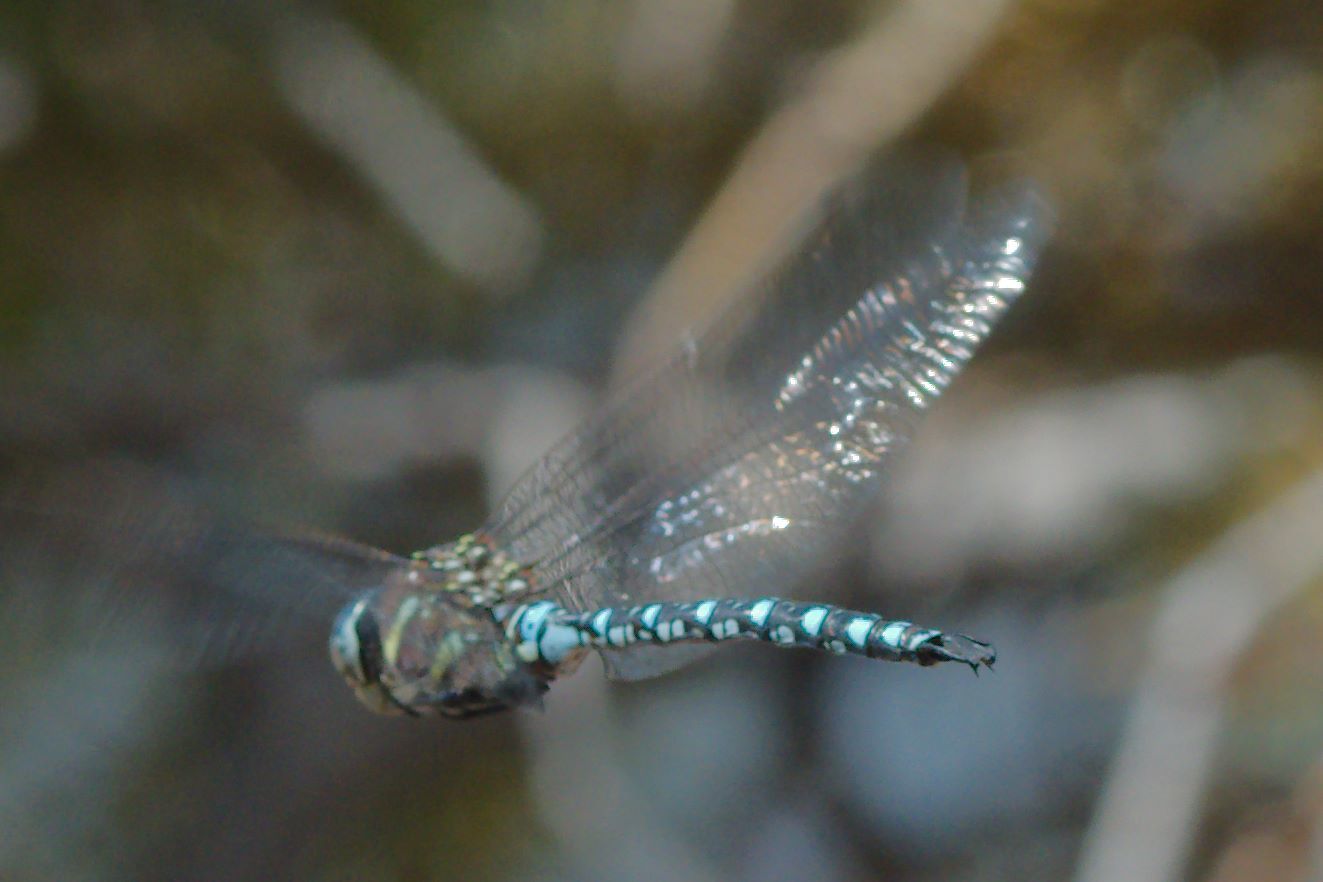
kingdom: Animalia
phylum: Arthropoda
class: Insecta
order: Odonata
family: Aeshnidae
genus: Aeshna
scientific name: Aeshna palmata
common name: Paddle-tailed darner
